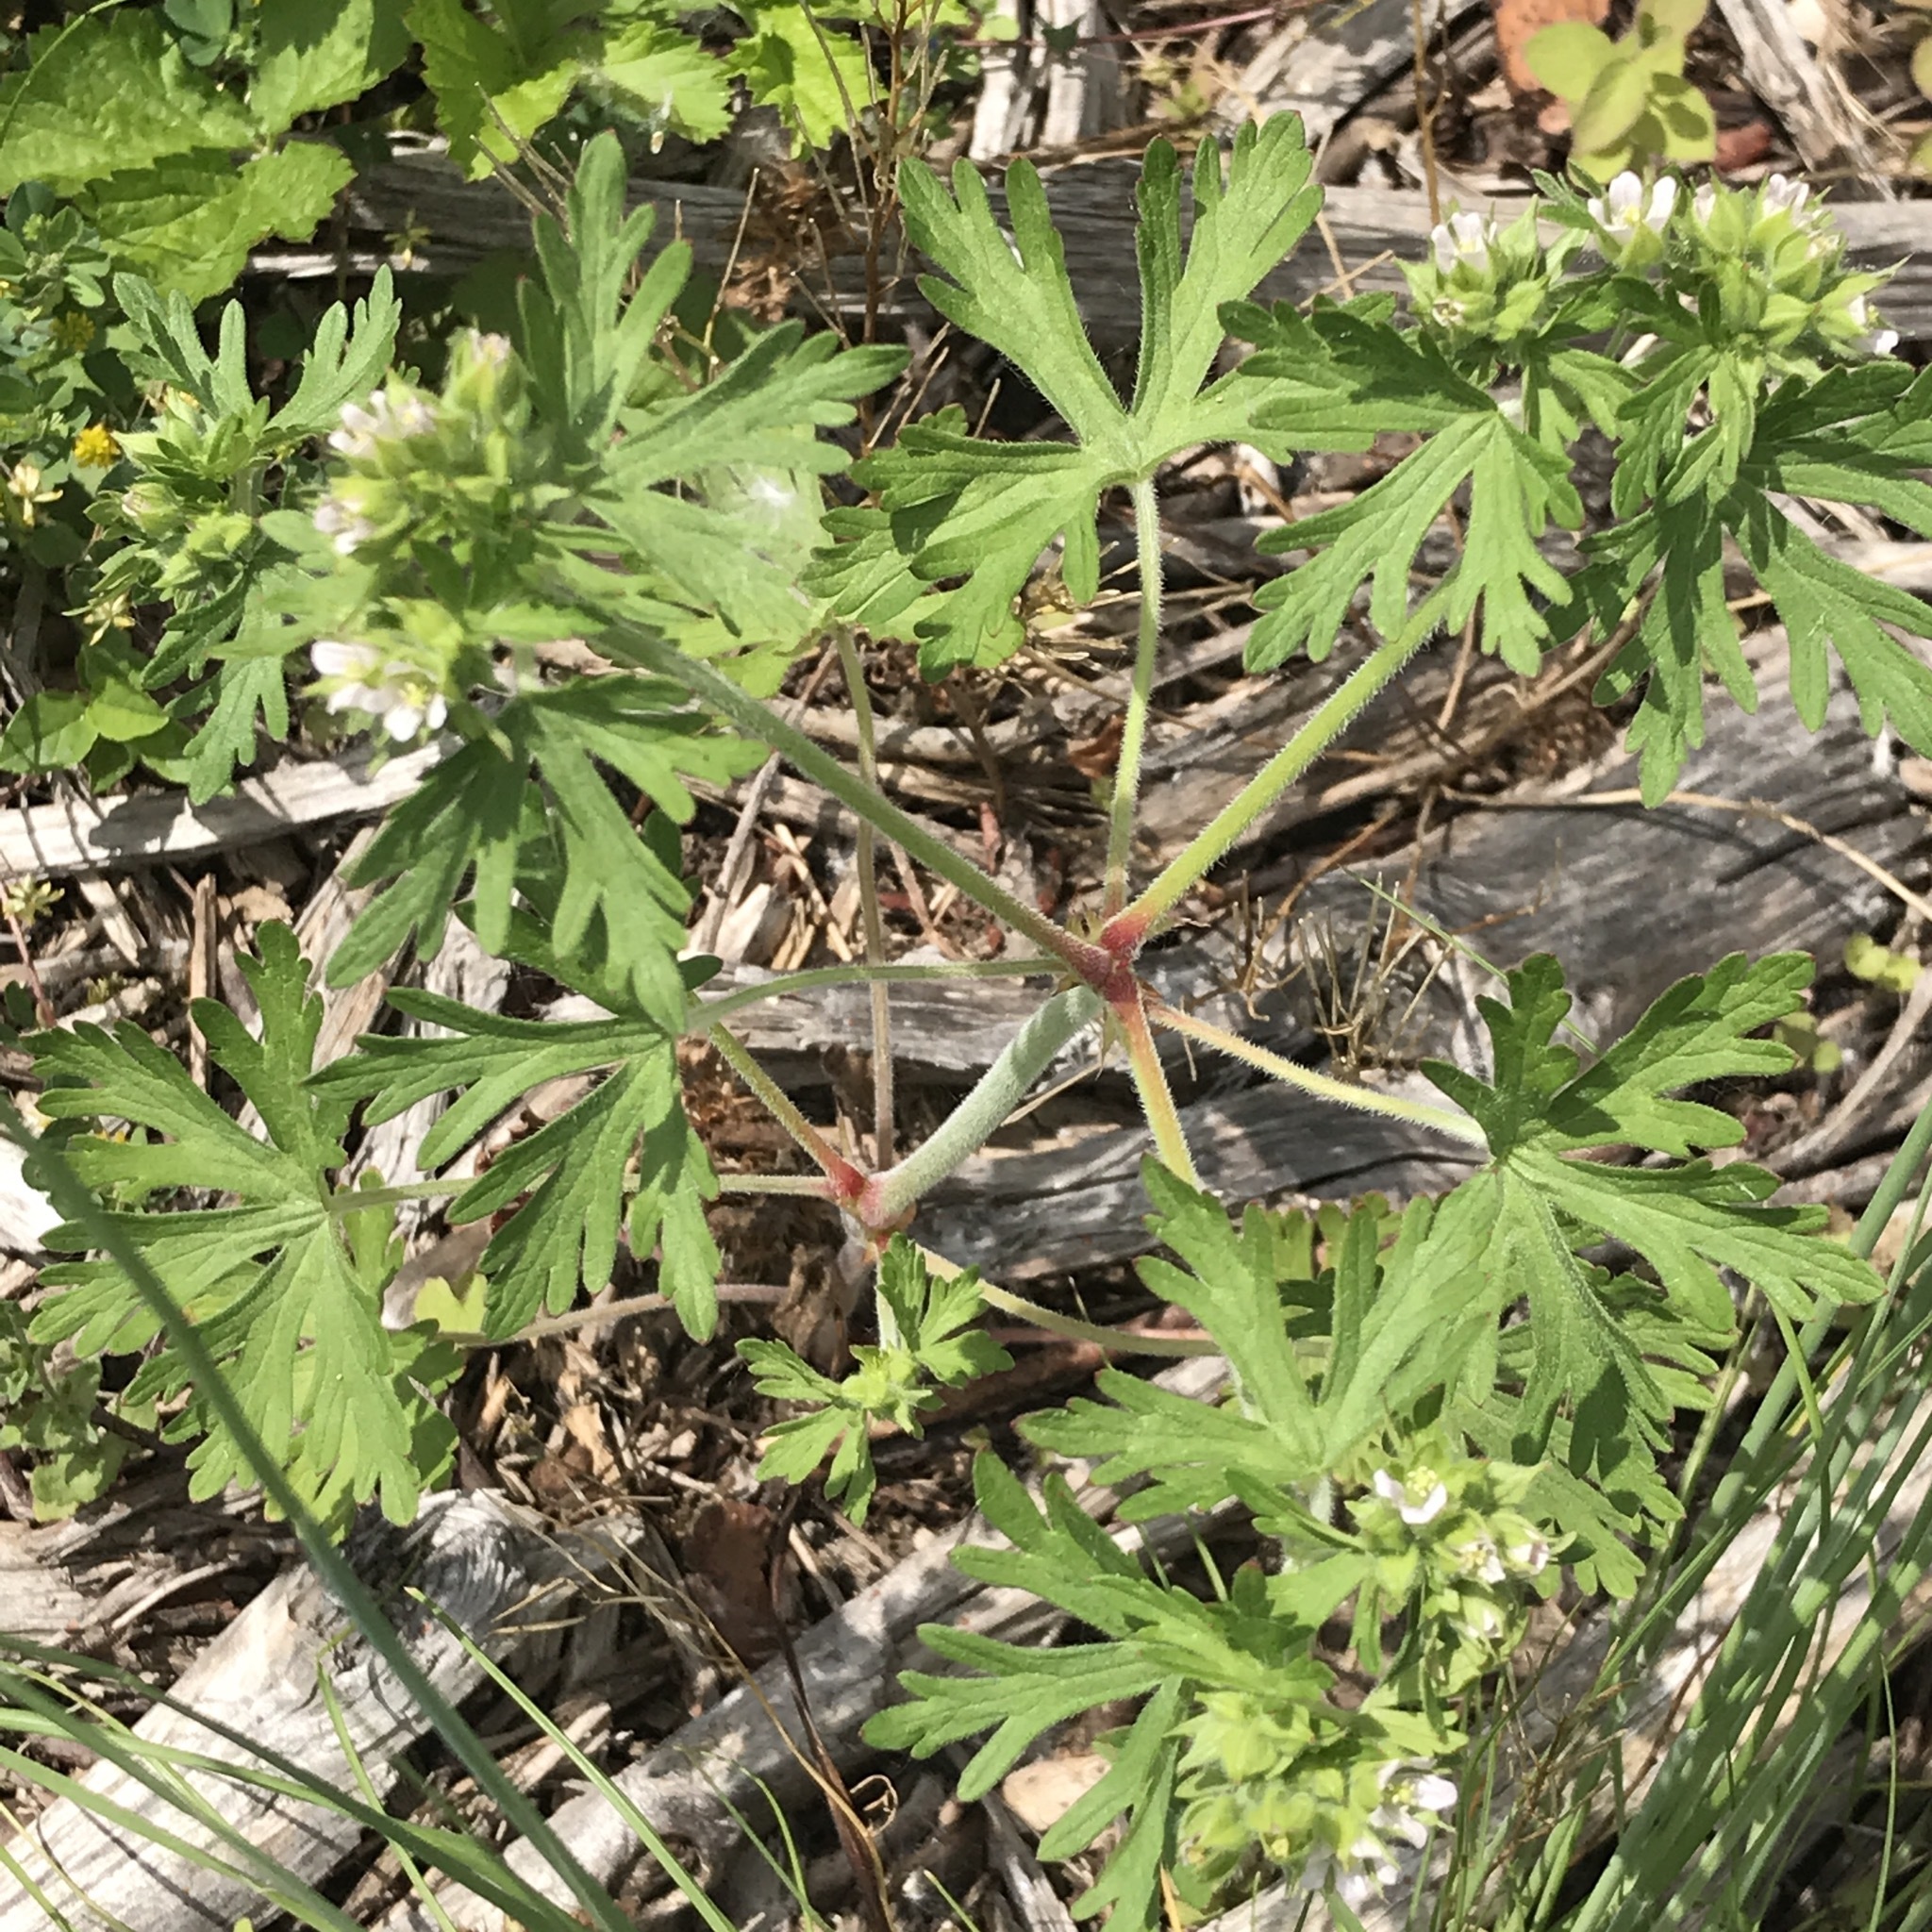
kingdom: Plantae
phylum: Tracheophyta
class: Magnoliopsida
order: Geraniales
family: Geraniaceae
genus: Geranium
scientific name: Geranium carolinianum
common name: Carolina crane's-bill
